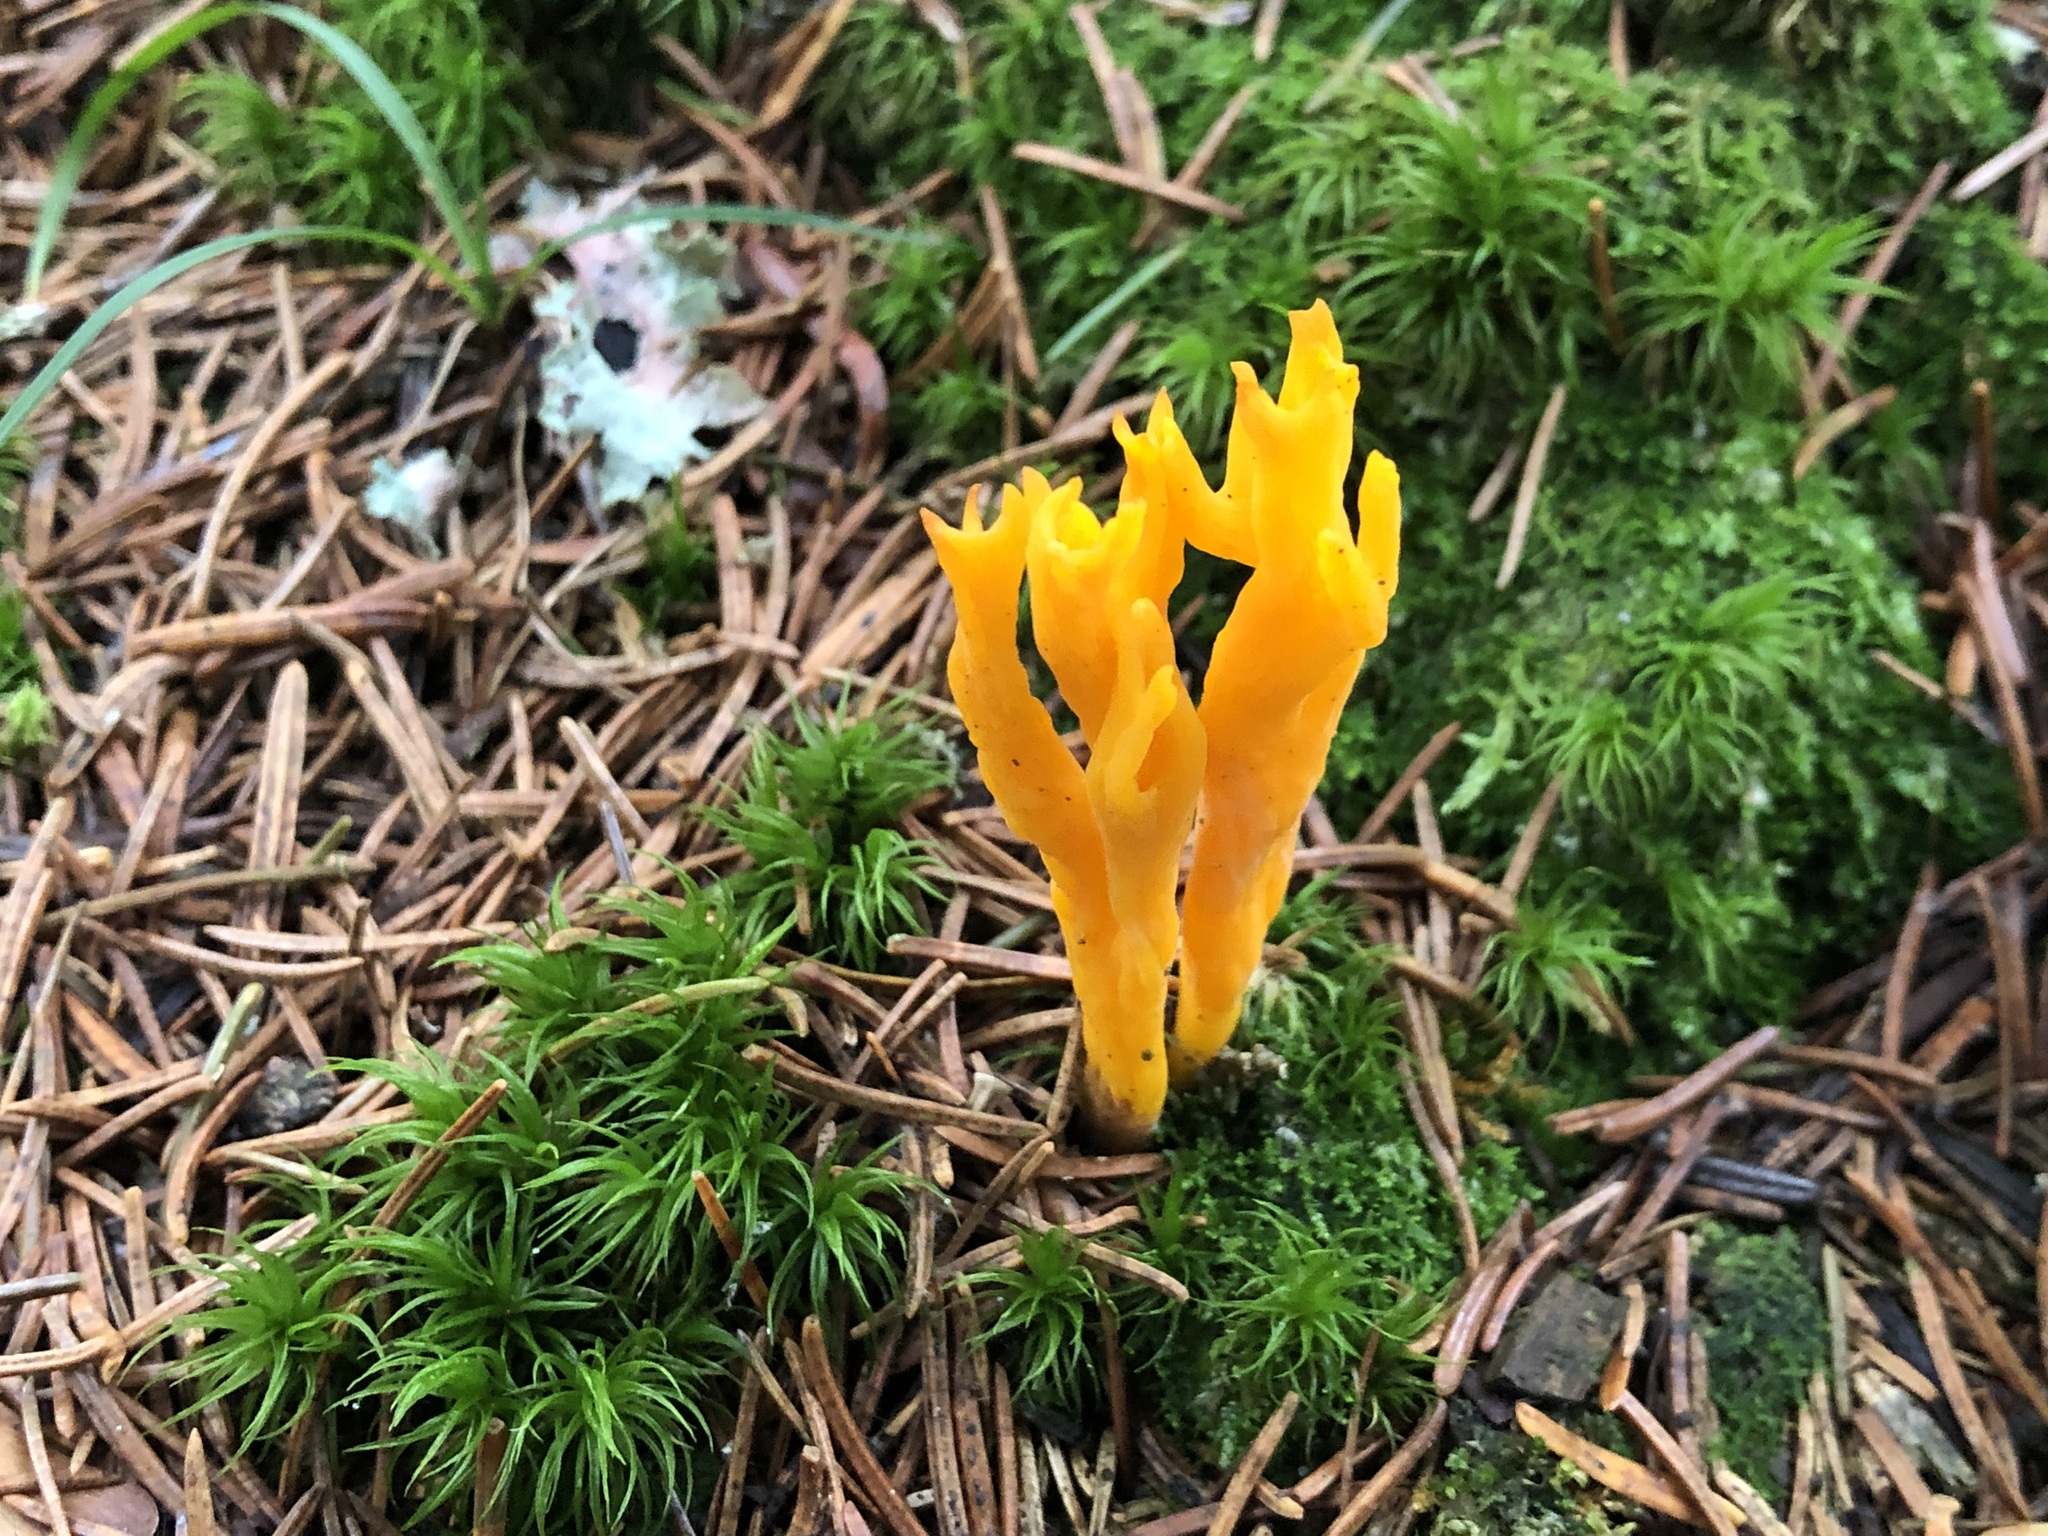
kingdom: Fungi
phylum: Basidiomycota
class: Dacrymycetes
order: Dacrymycetales
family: Dacrymycetaceae
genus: Calocera
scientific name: Calocera viscosa
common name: Yellow stagshorn
